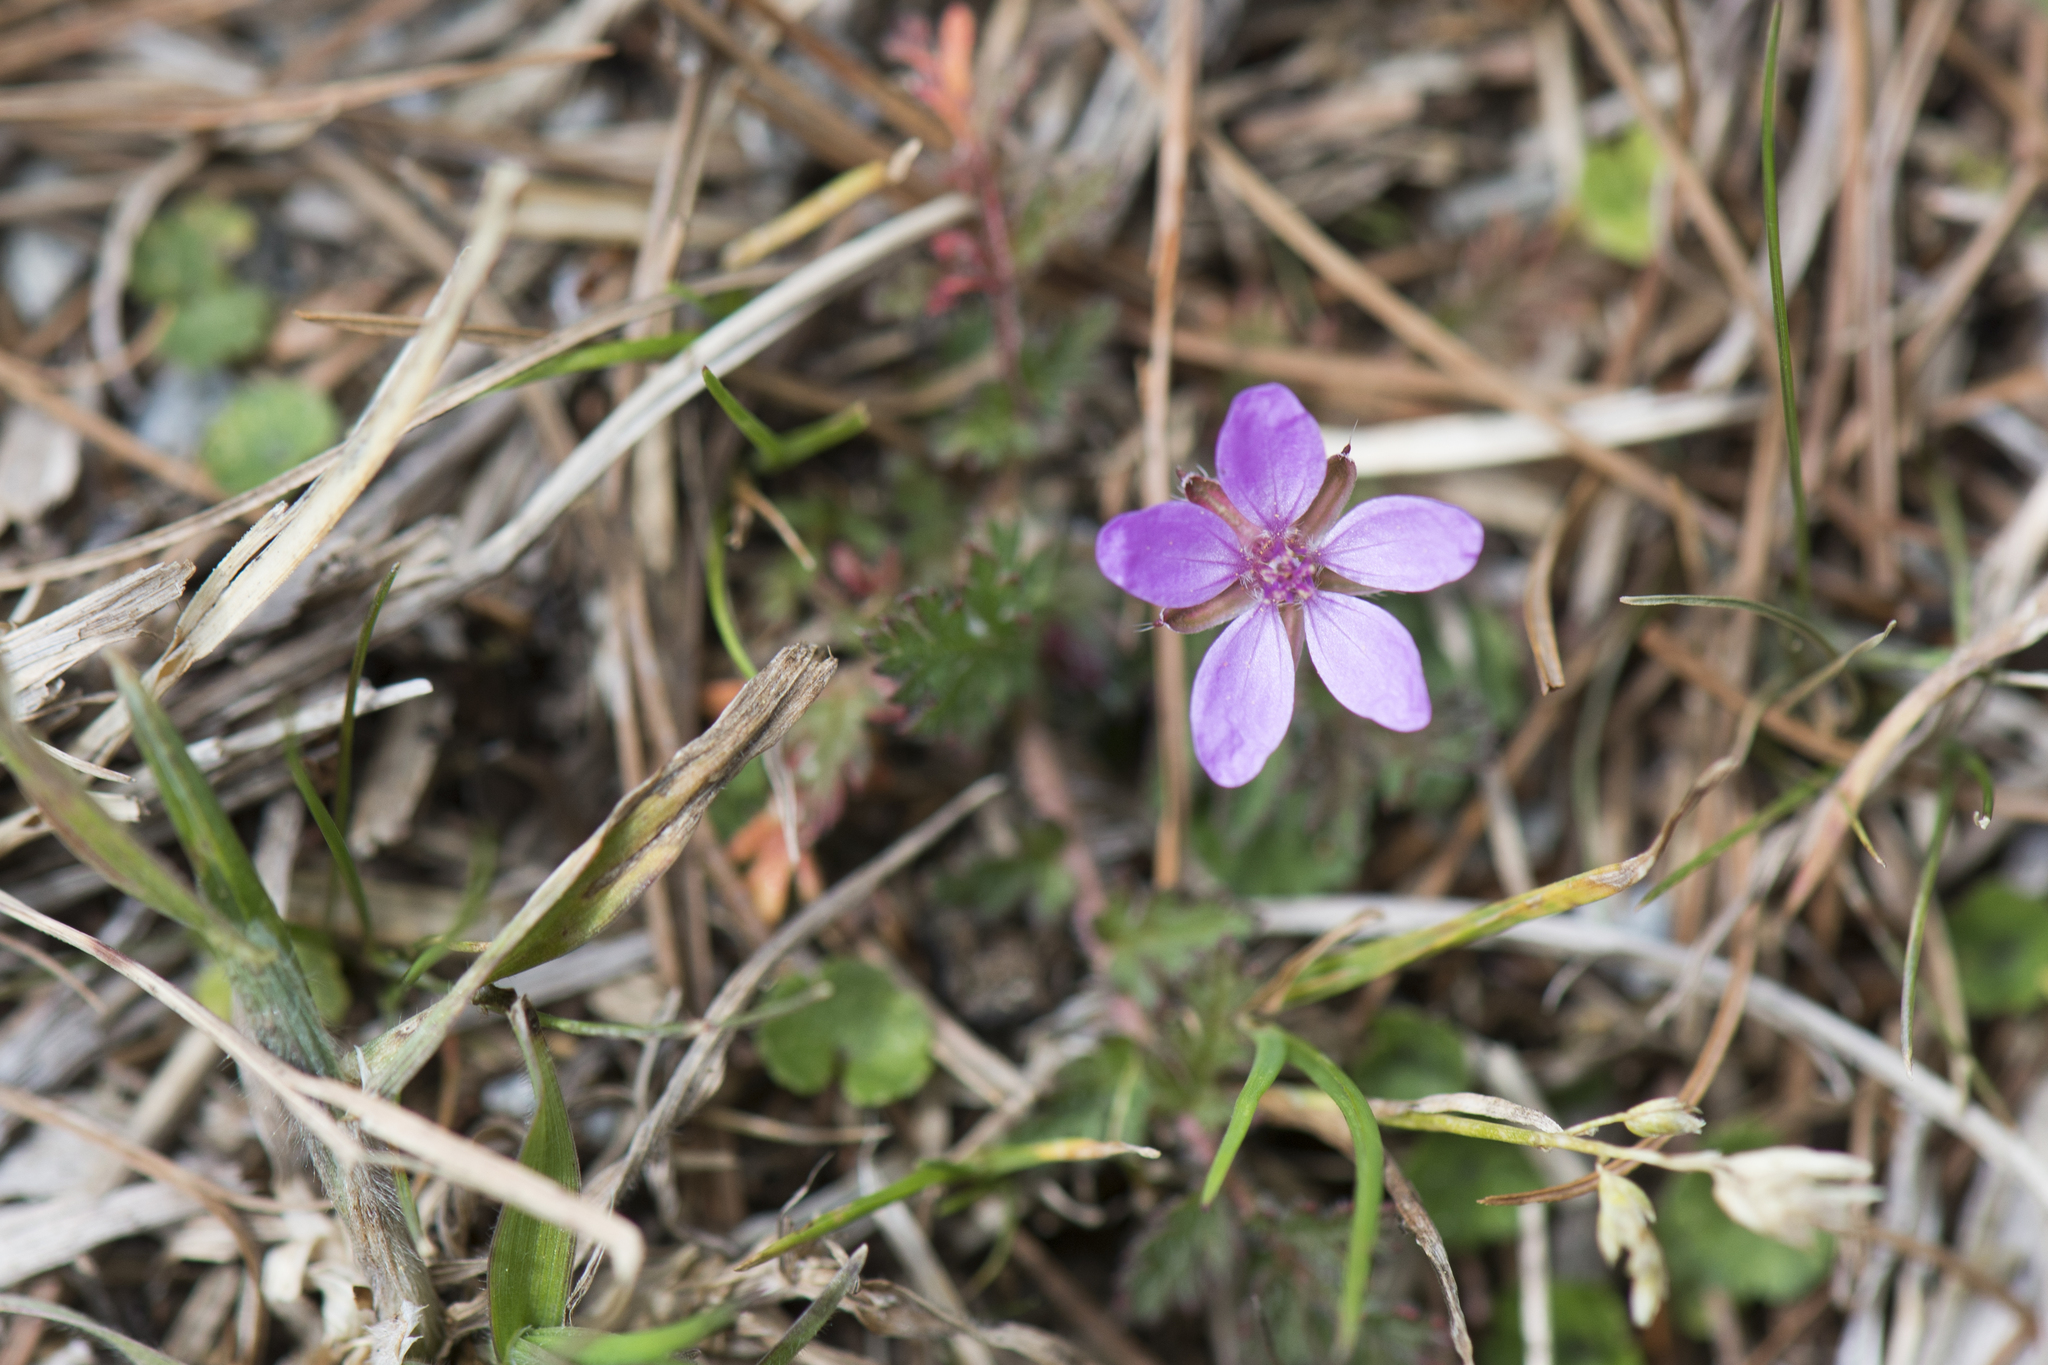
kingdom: Plantae
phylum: Tracheophyta
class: Magnoliopsida
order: Geraniales
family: Geraniaceae
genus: Erodium
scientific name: Erodium cicutarium
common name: Common stork's-bill
